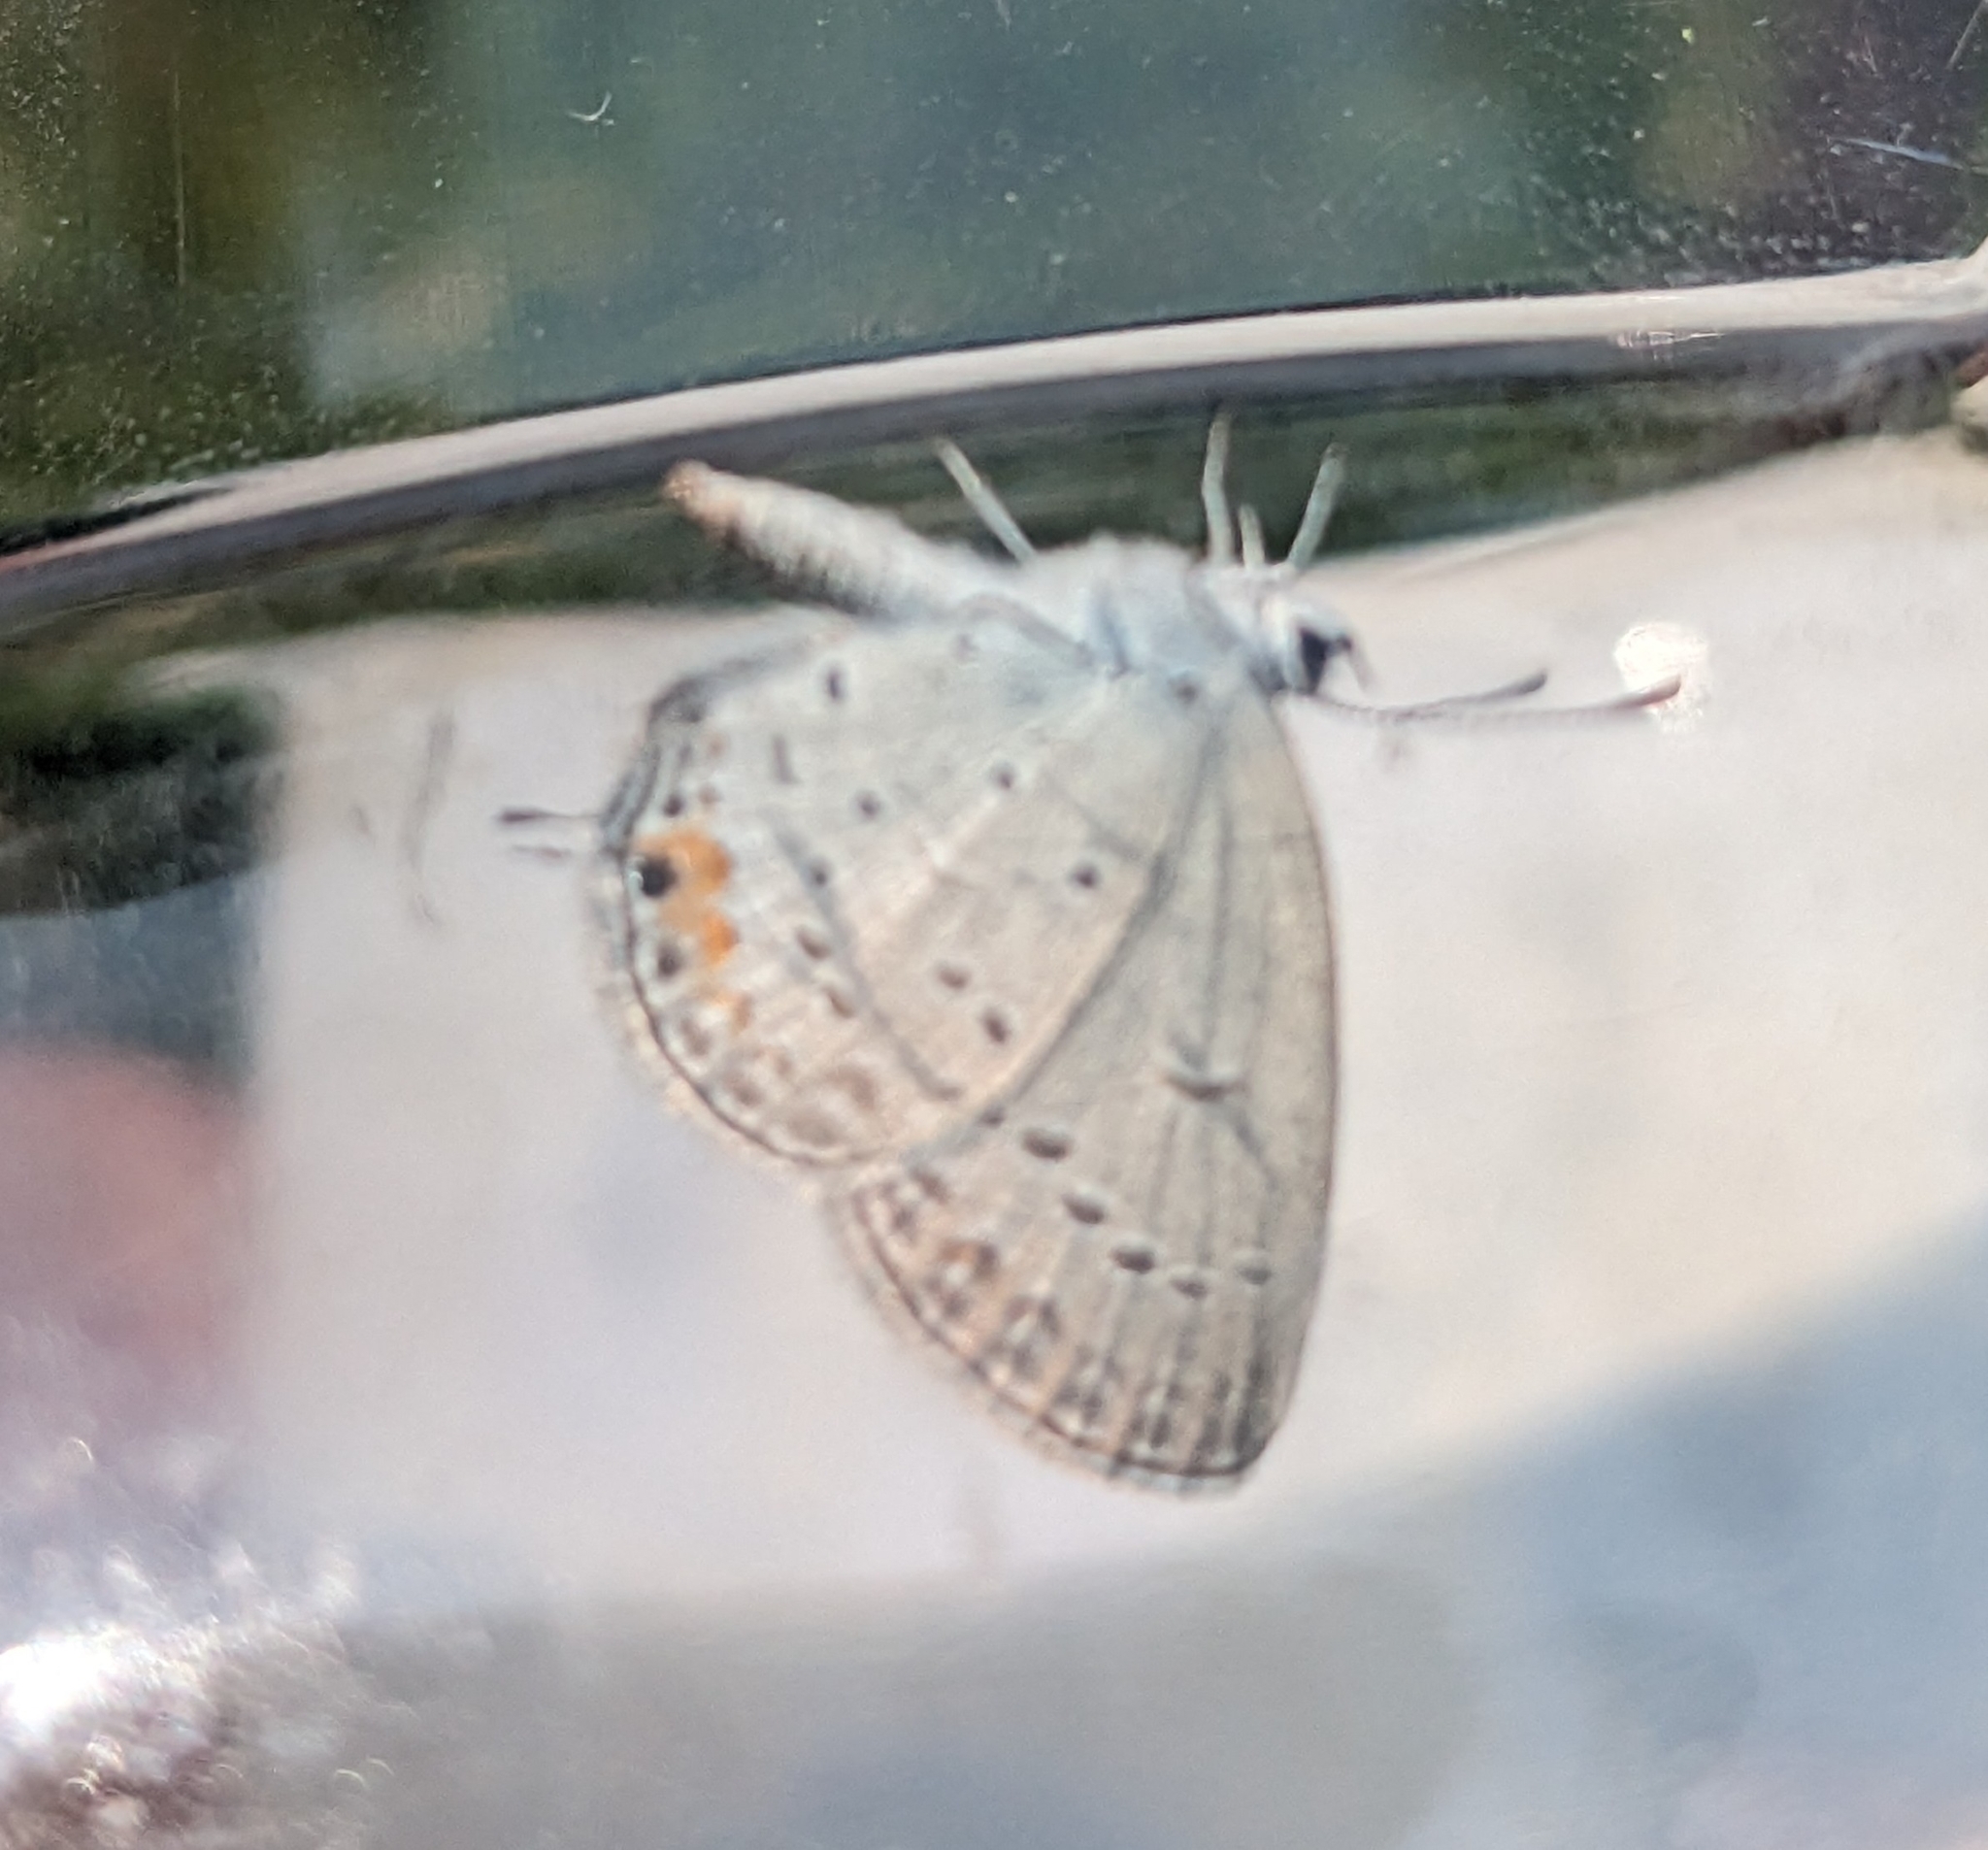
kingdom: Animalia
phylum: Arthropoda
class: Insecta
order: Lepidoptera
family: Lycaenidae
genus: Elkalyce
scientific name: Elkalyce comyntas
